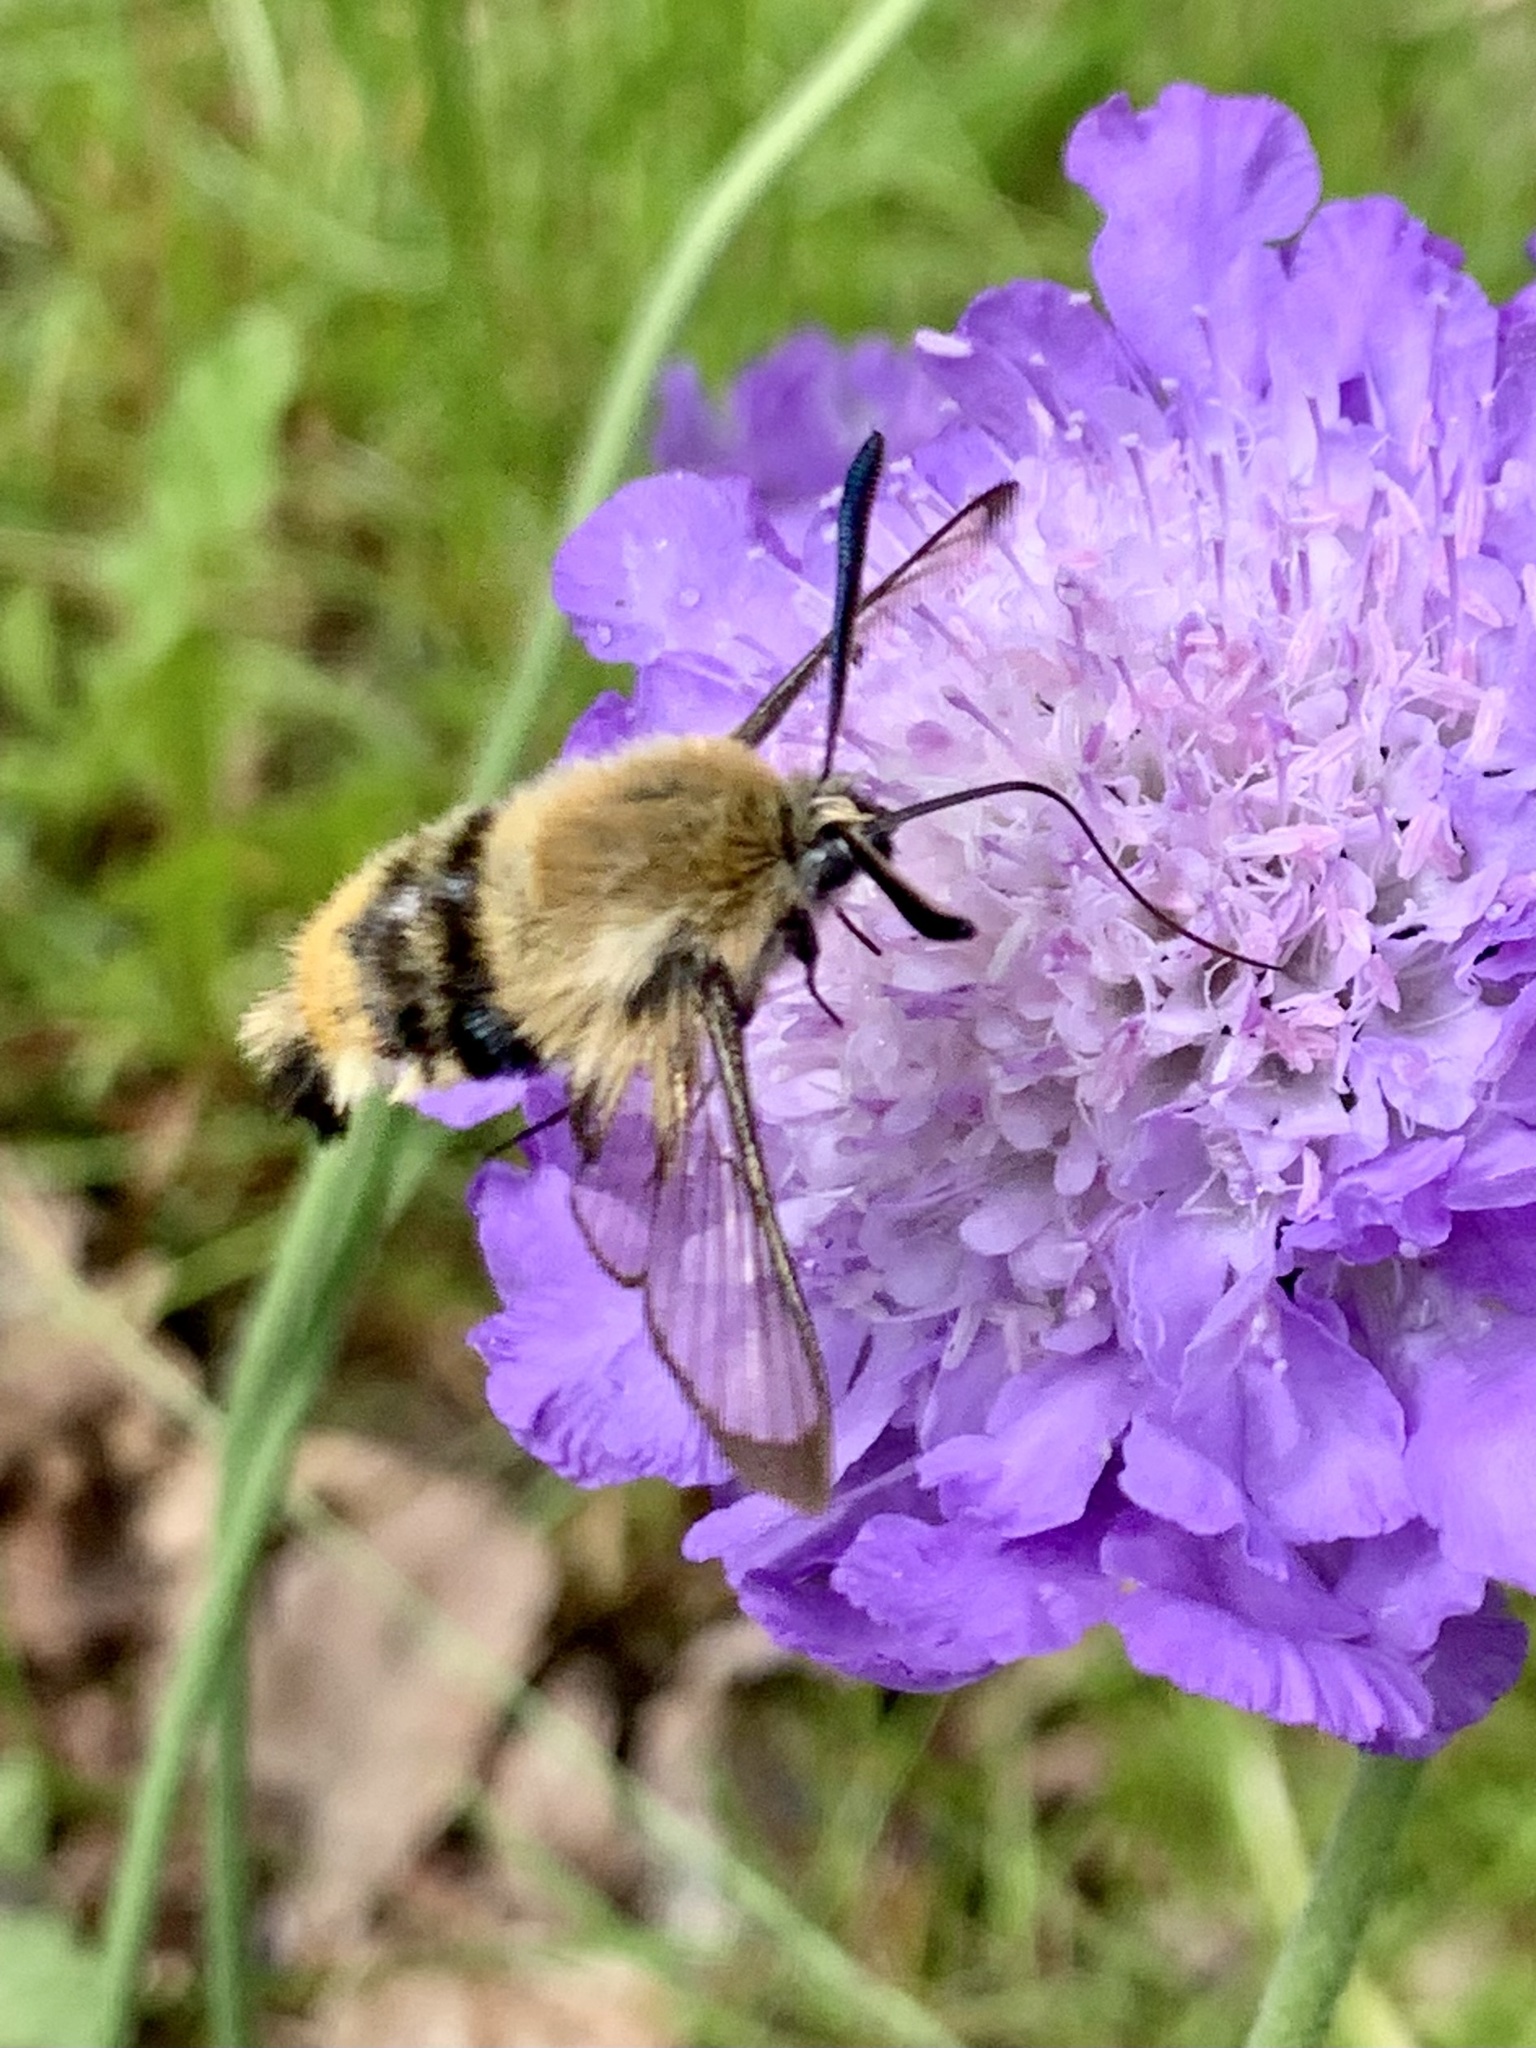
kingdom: Animalia
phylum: Arthropoda
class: Insecta
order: Lepidoptera
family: Sphingidae
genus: Hemaris
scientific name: Hemaris tityus
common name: Narrow-bordered bee hawk-moth
